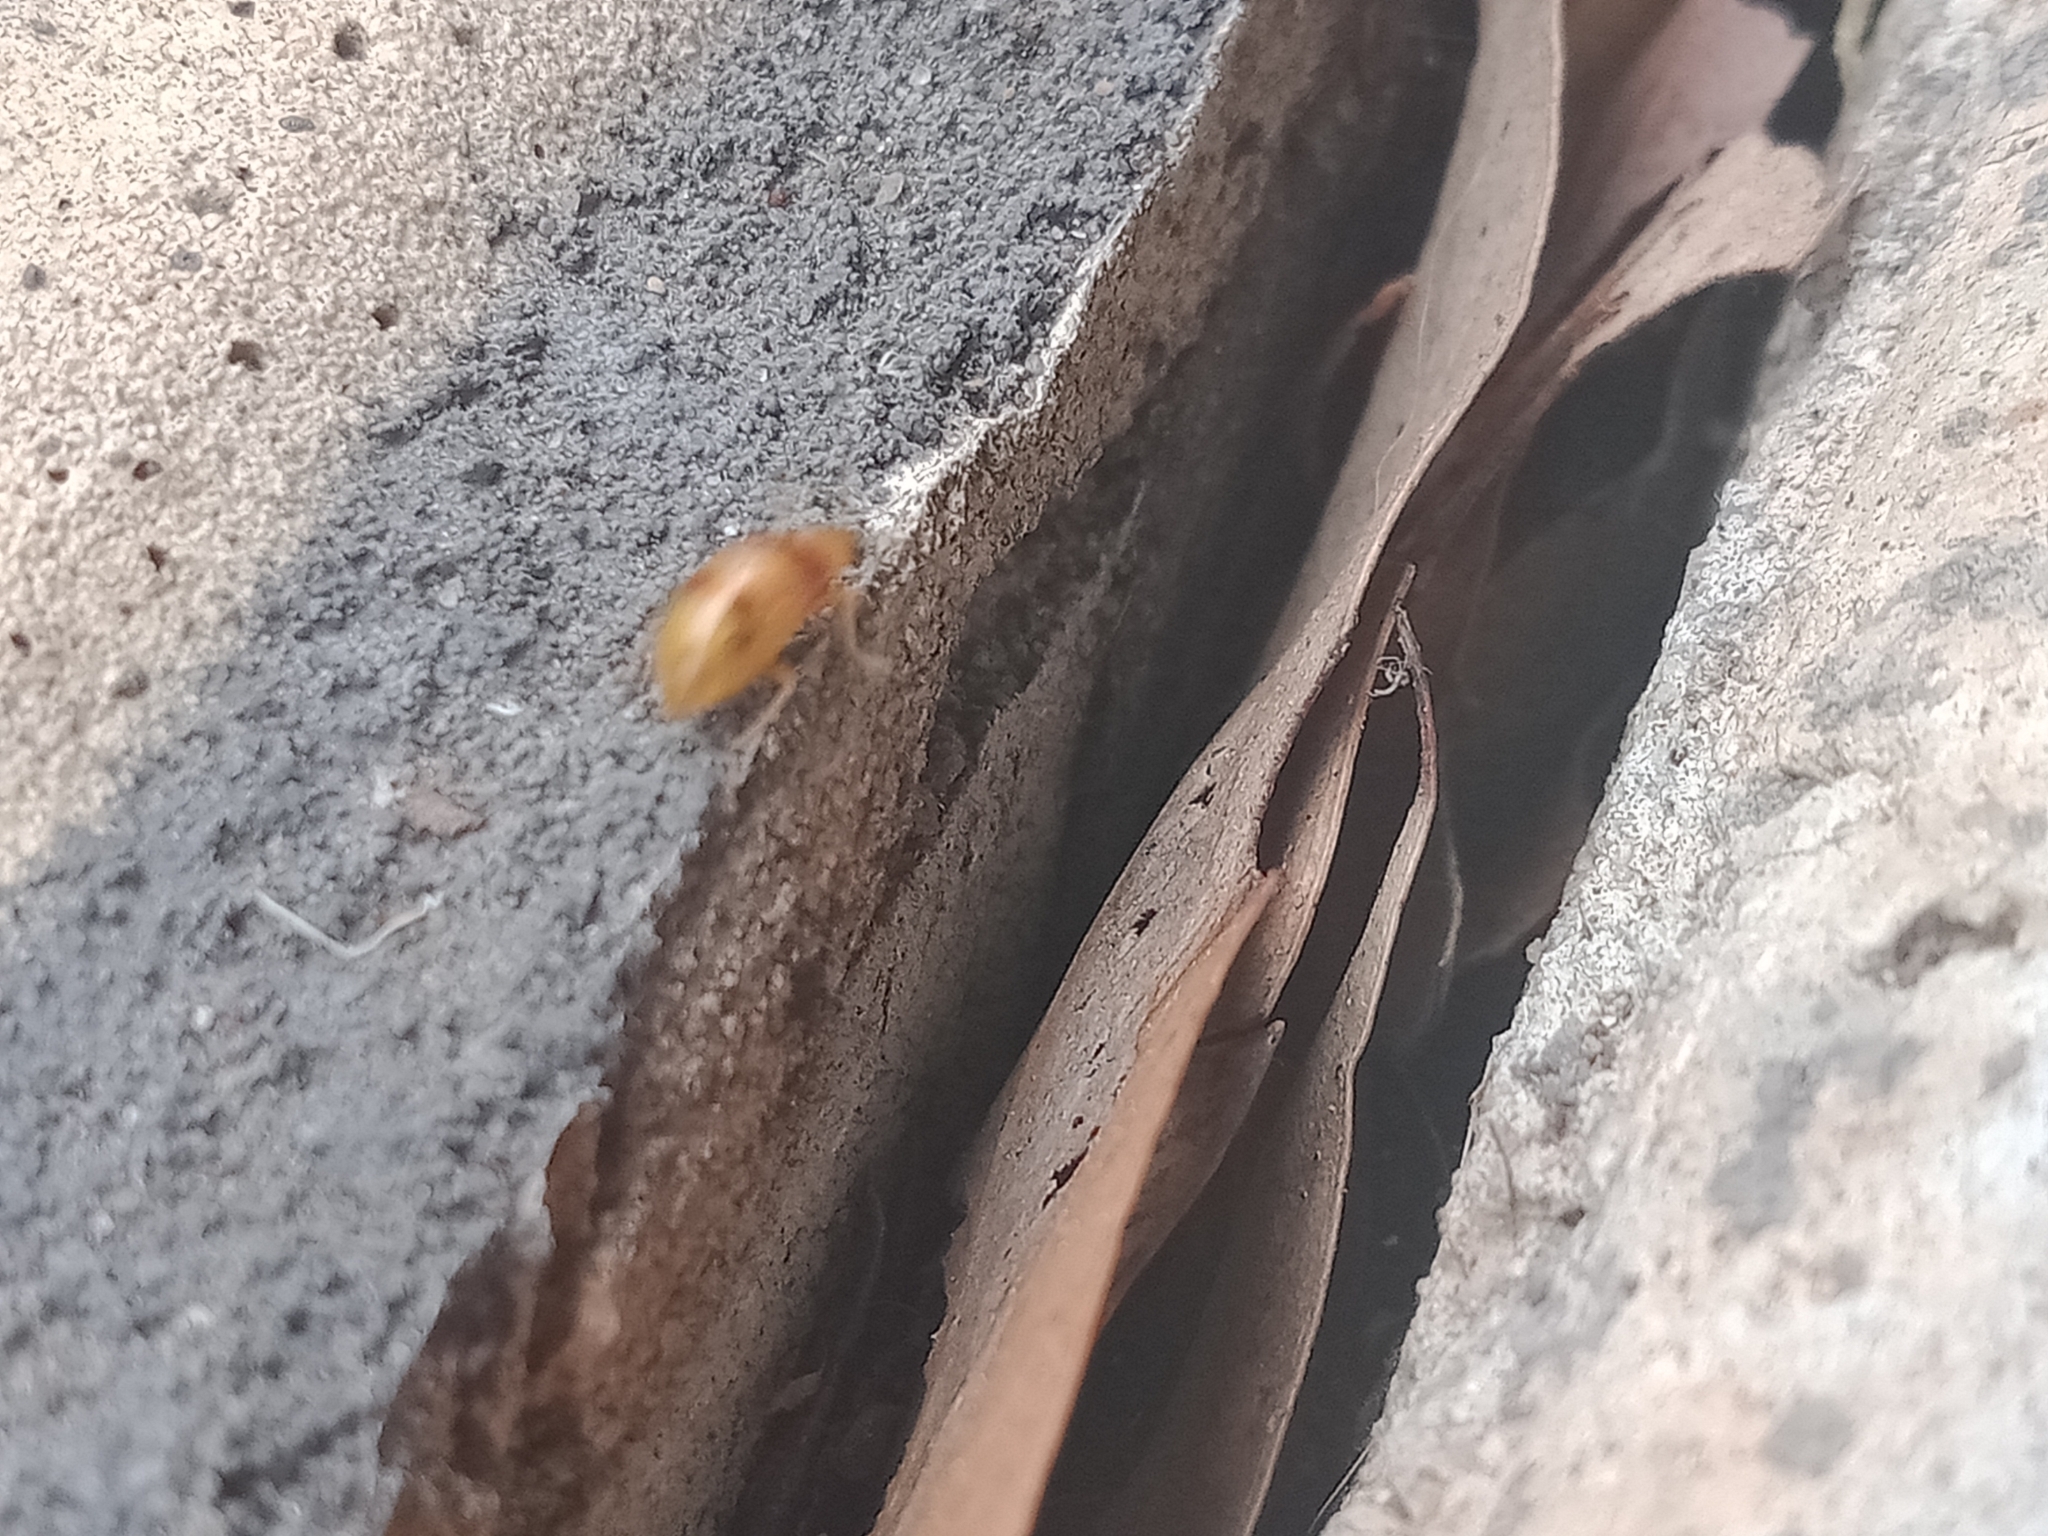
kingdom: Animalia
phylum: Arthropoda
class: Insecta
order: Coleoptera
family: Chrysomelidae
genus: Monolepta
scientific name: Monolepta
